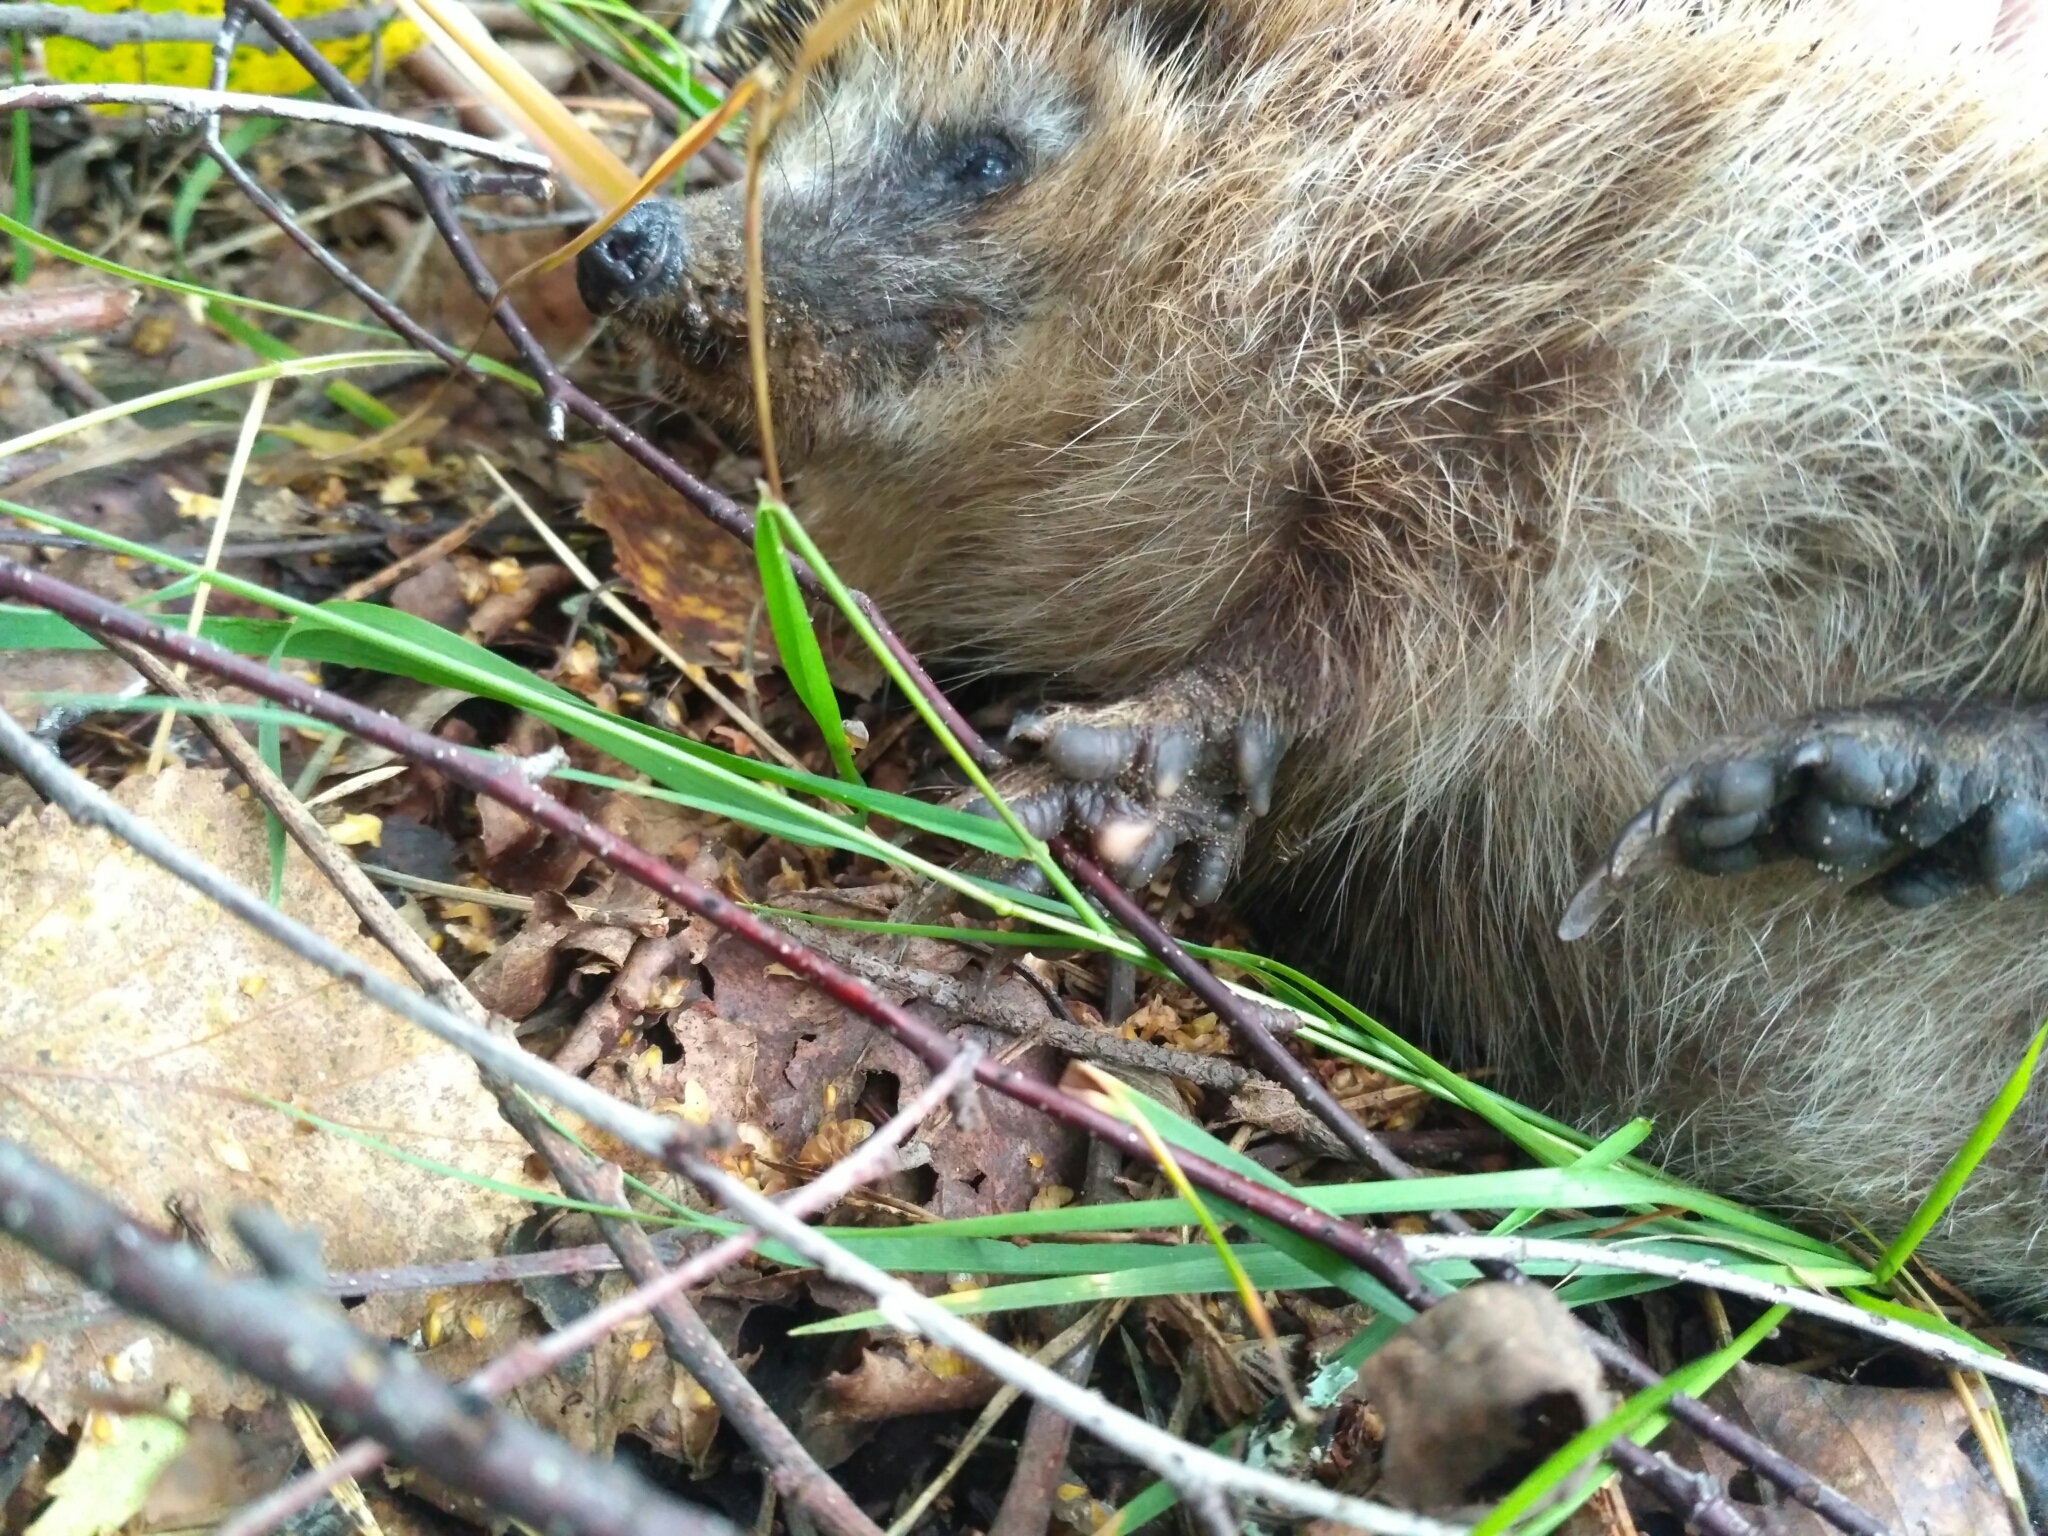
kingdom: Animalia
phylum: Chordata
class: Mammalia
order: Erinaceomorpha
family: Erinaceidae
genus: Erinaceus
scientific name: Erinaceus europaeus
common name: West european hedgehog
